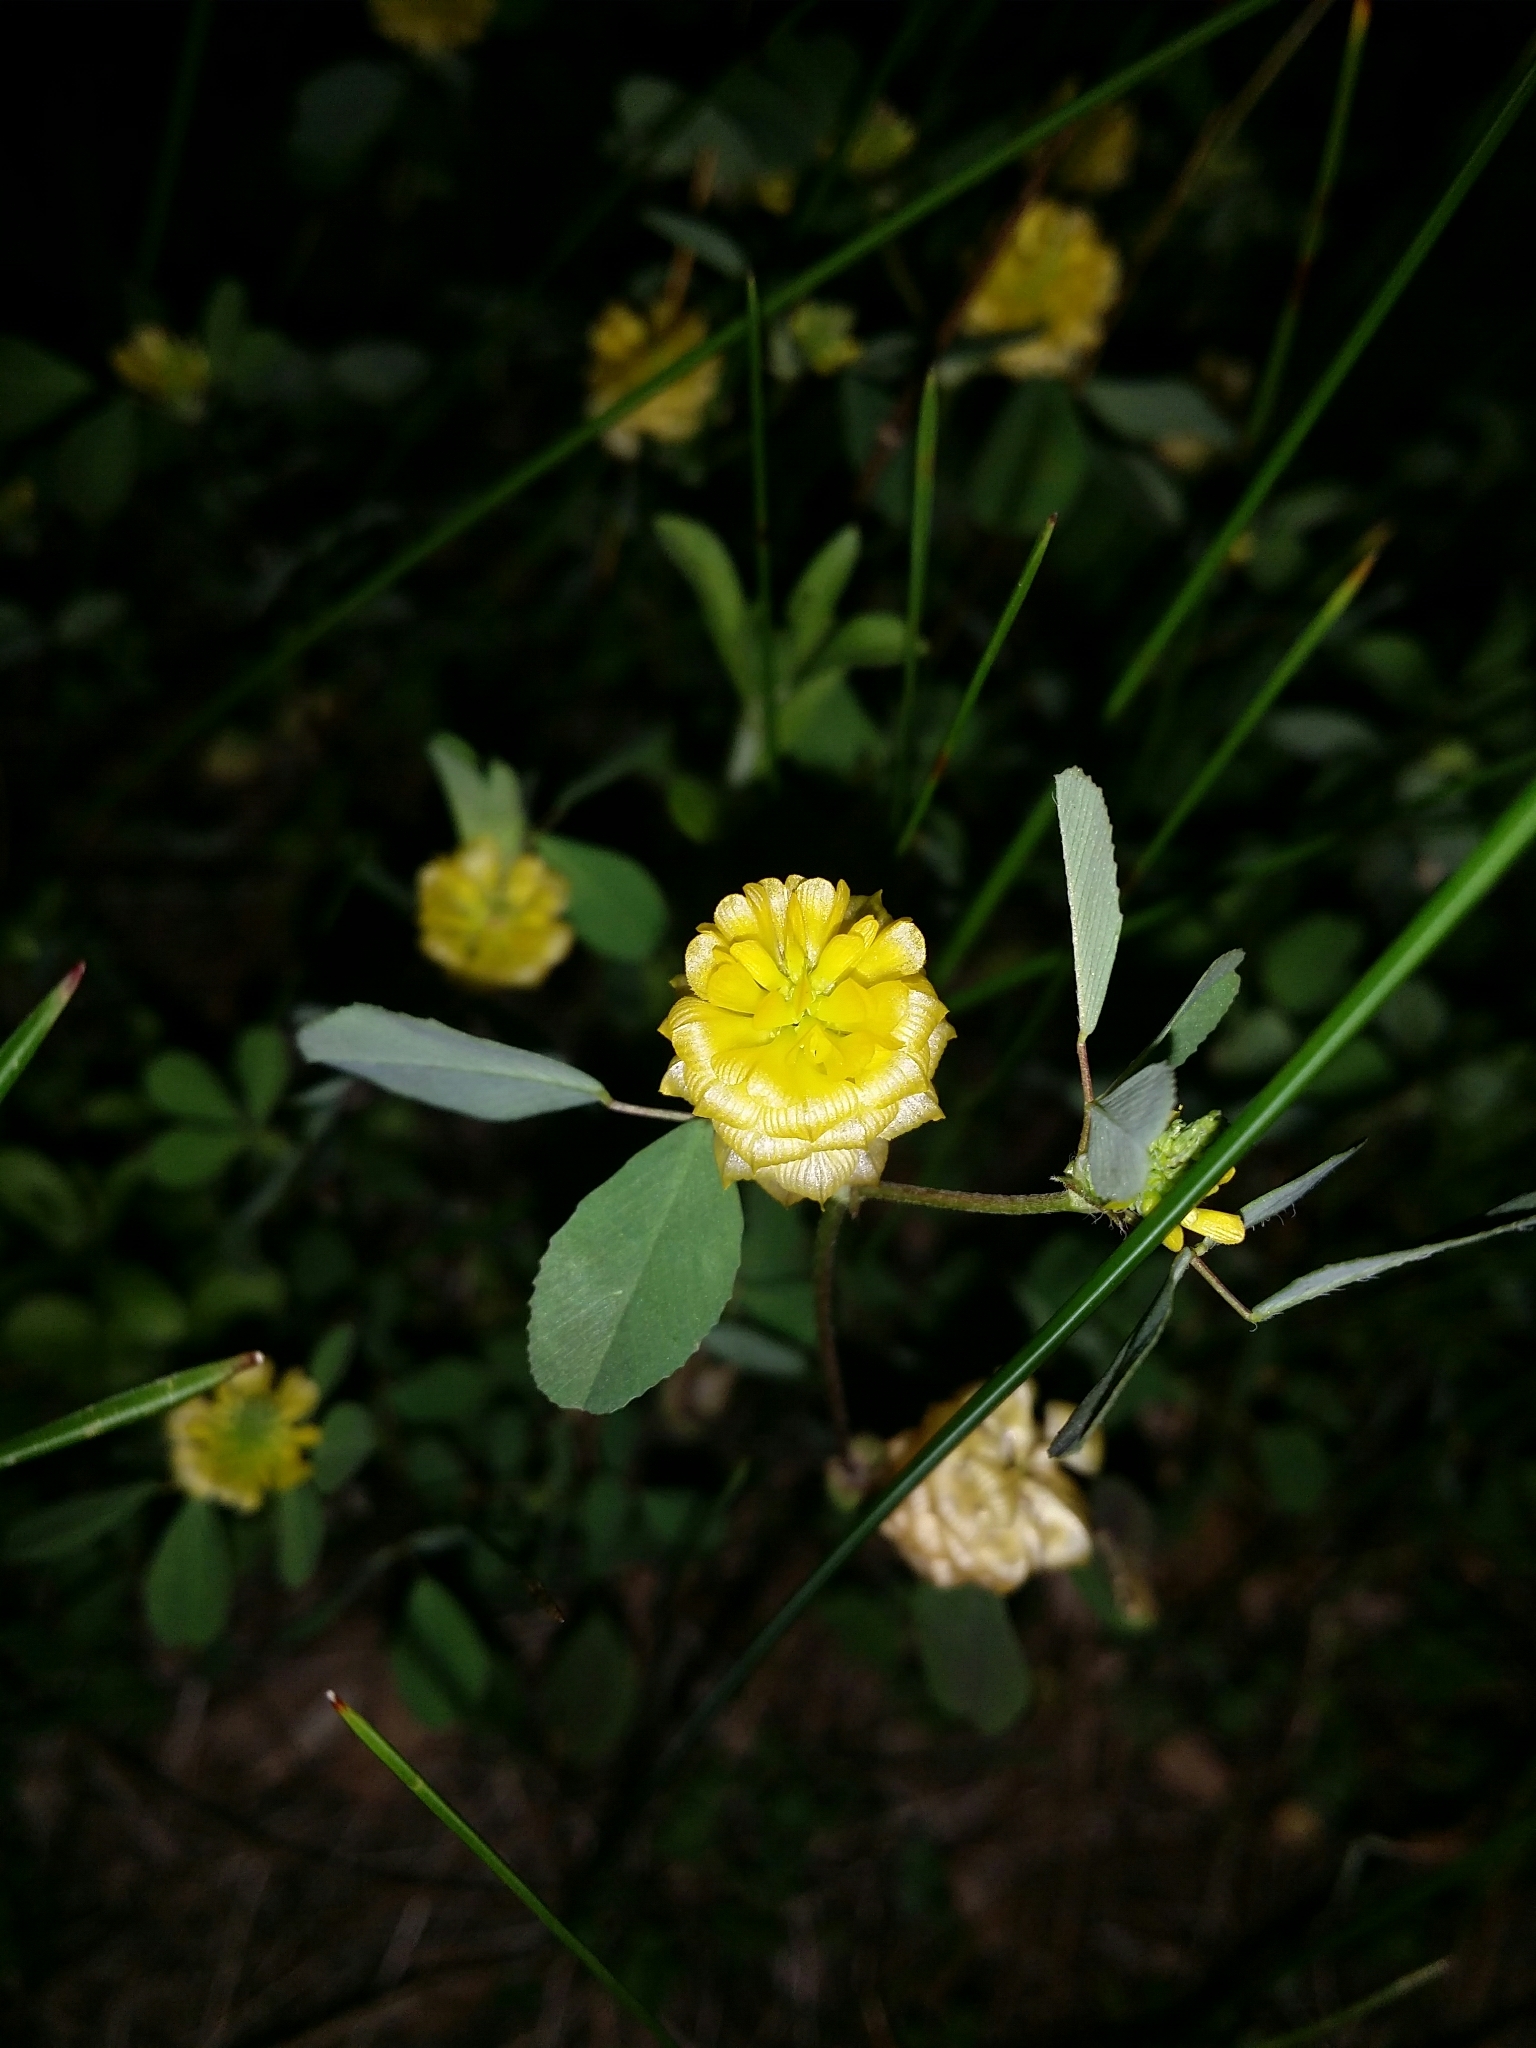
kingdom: Plantae
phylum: Tracheophyta
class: Magnoliopsida
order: Fabales
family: Fabaceae
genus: Trifolium
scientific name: Trifolium campestre
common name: Field clover
